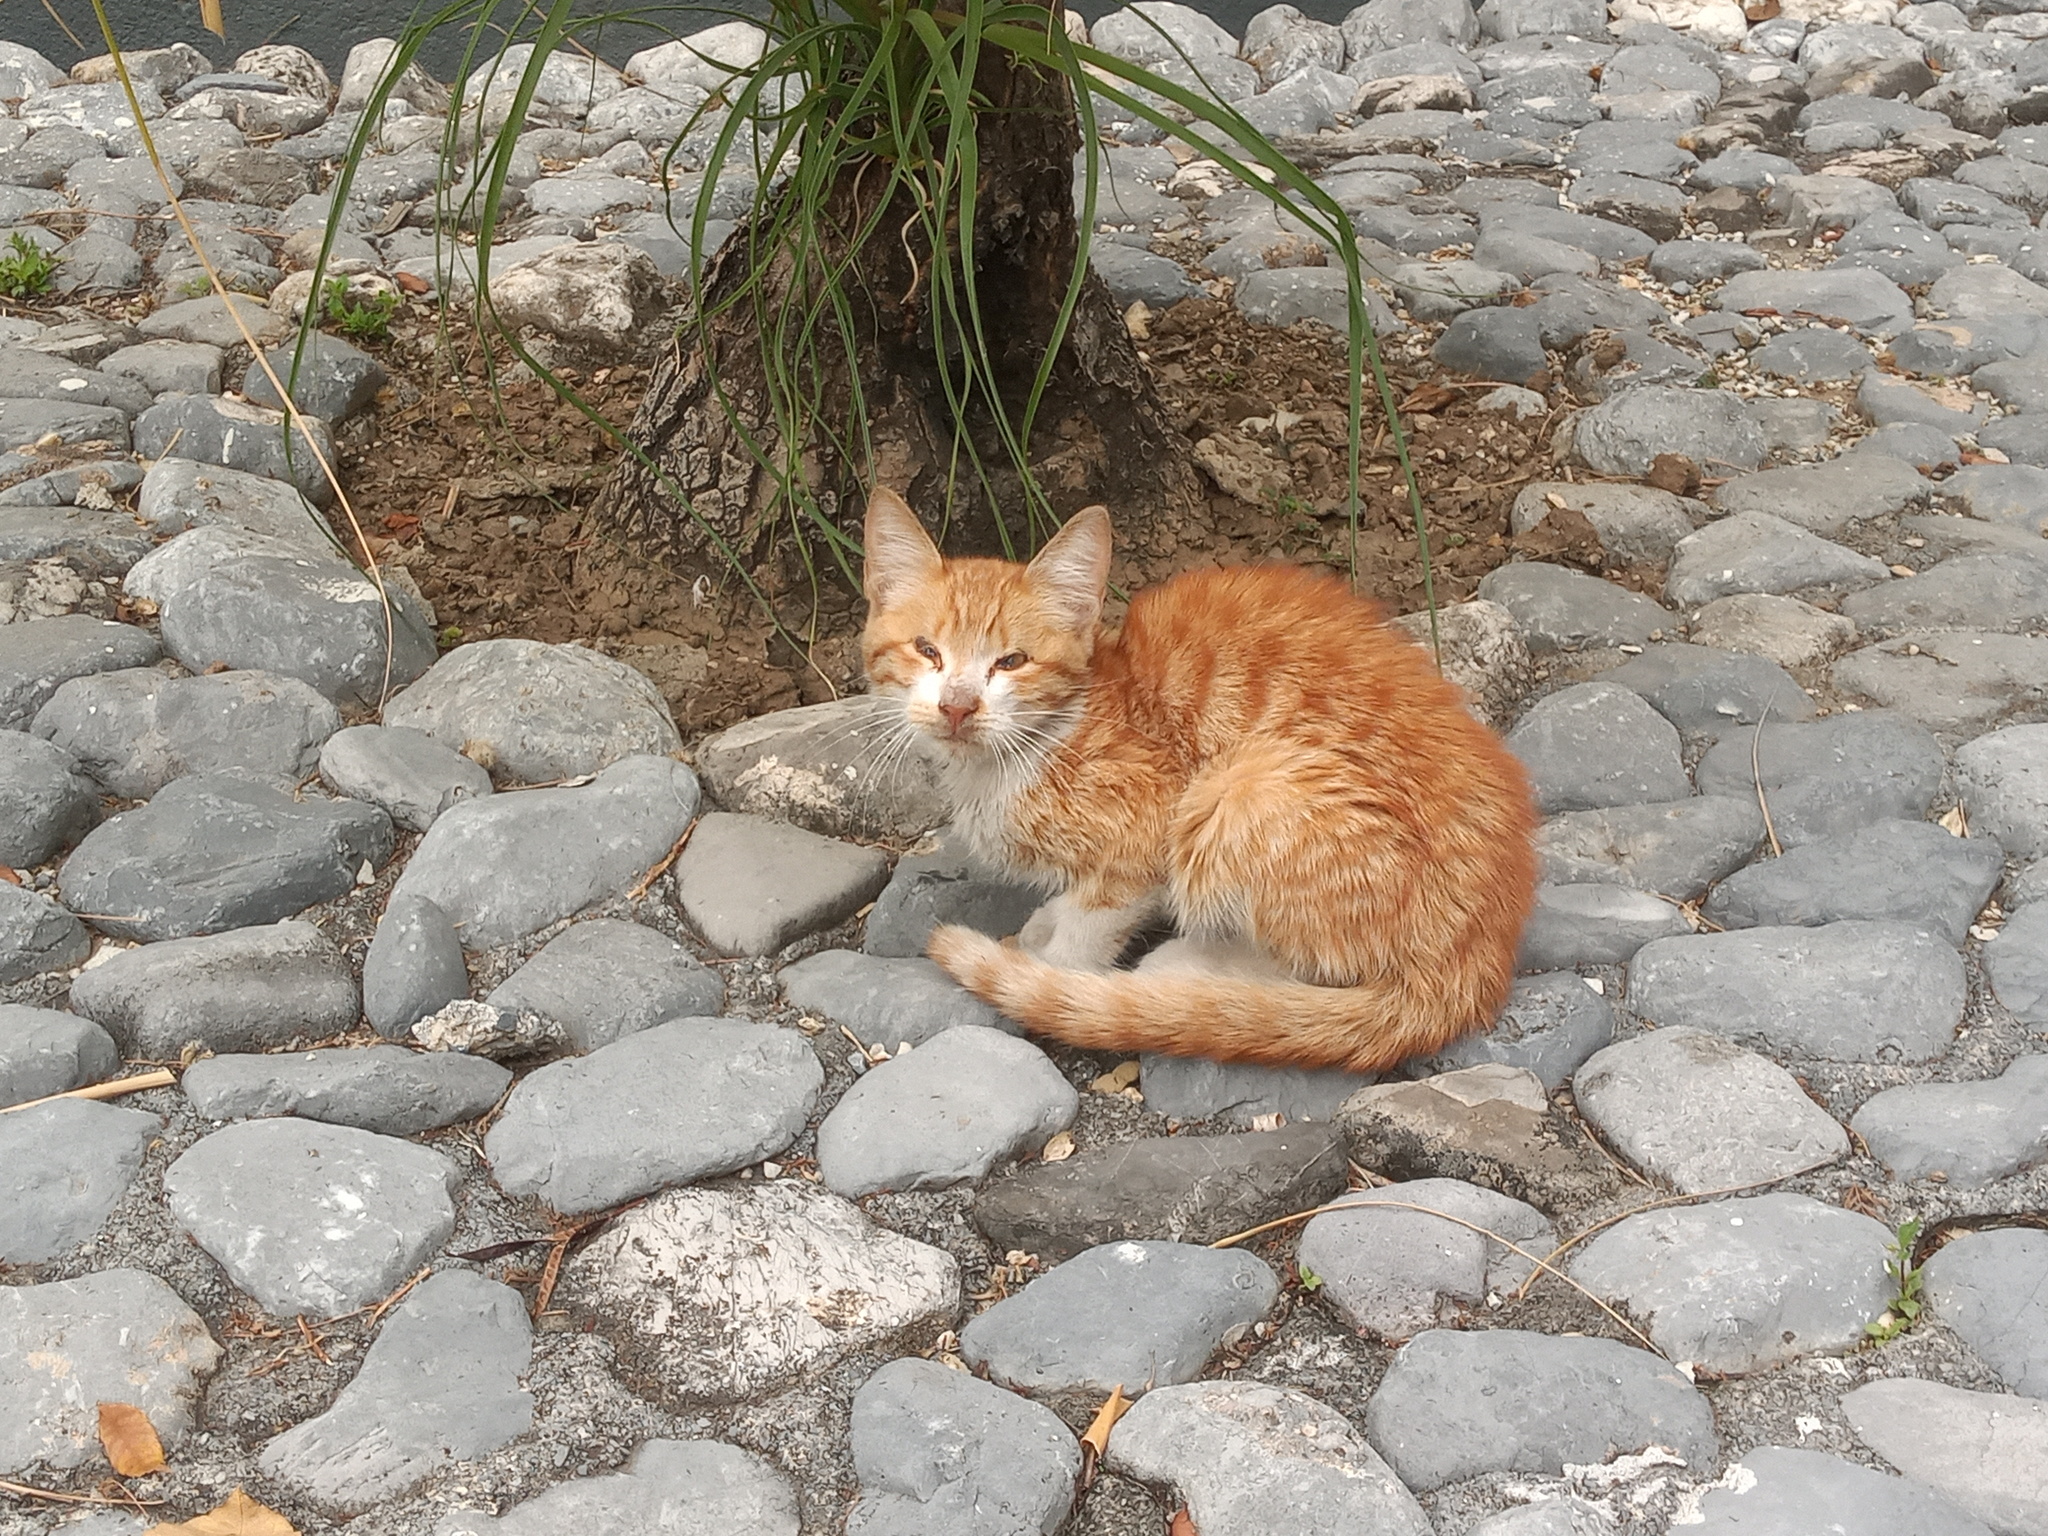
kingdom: Animalia
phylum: Chordata
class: Mammalia
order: Carnivora
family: Felidae
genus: Felis
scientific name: Felis catus
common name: Domestic cat
